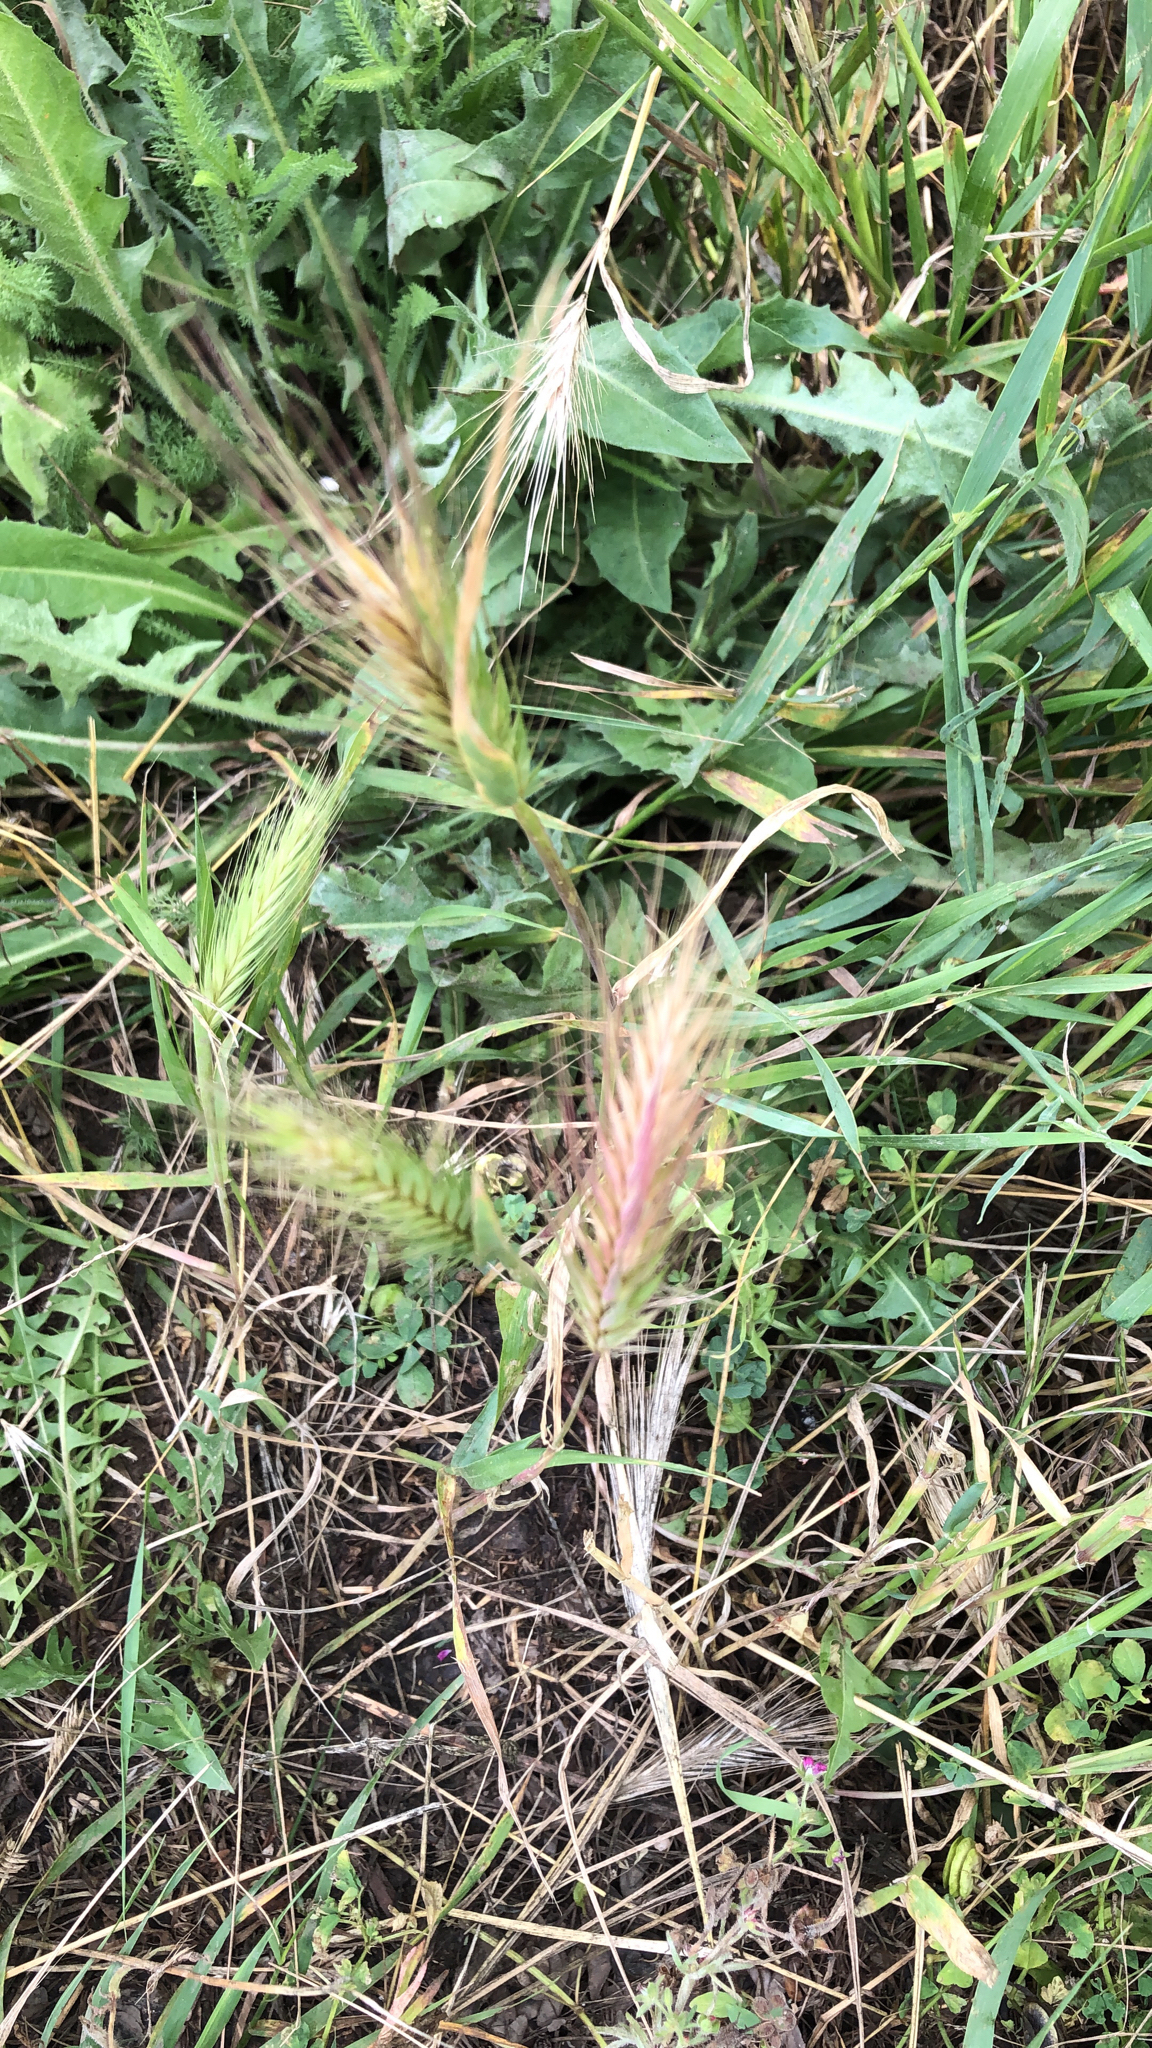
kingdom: Plantae
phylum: Tracheophyta
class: Liliopsida
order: Poales
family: Poaceae
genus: Hordeum
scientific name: Hordeum murinum
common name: Wall barley
